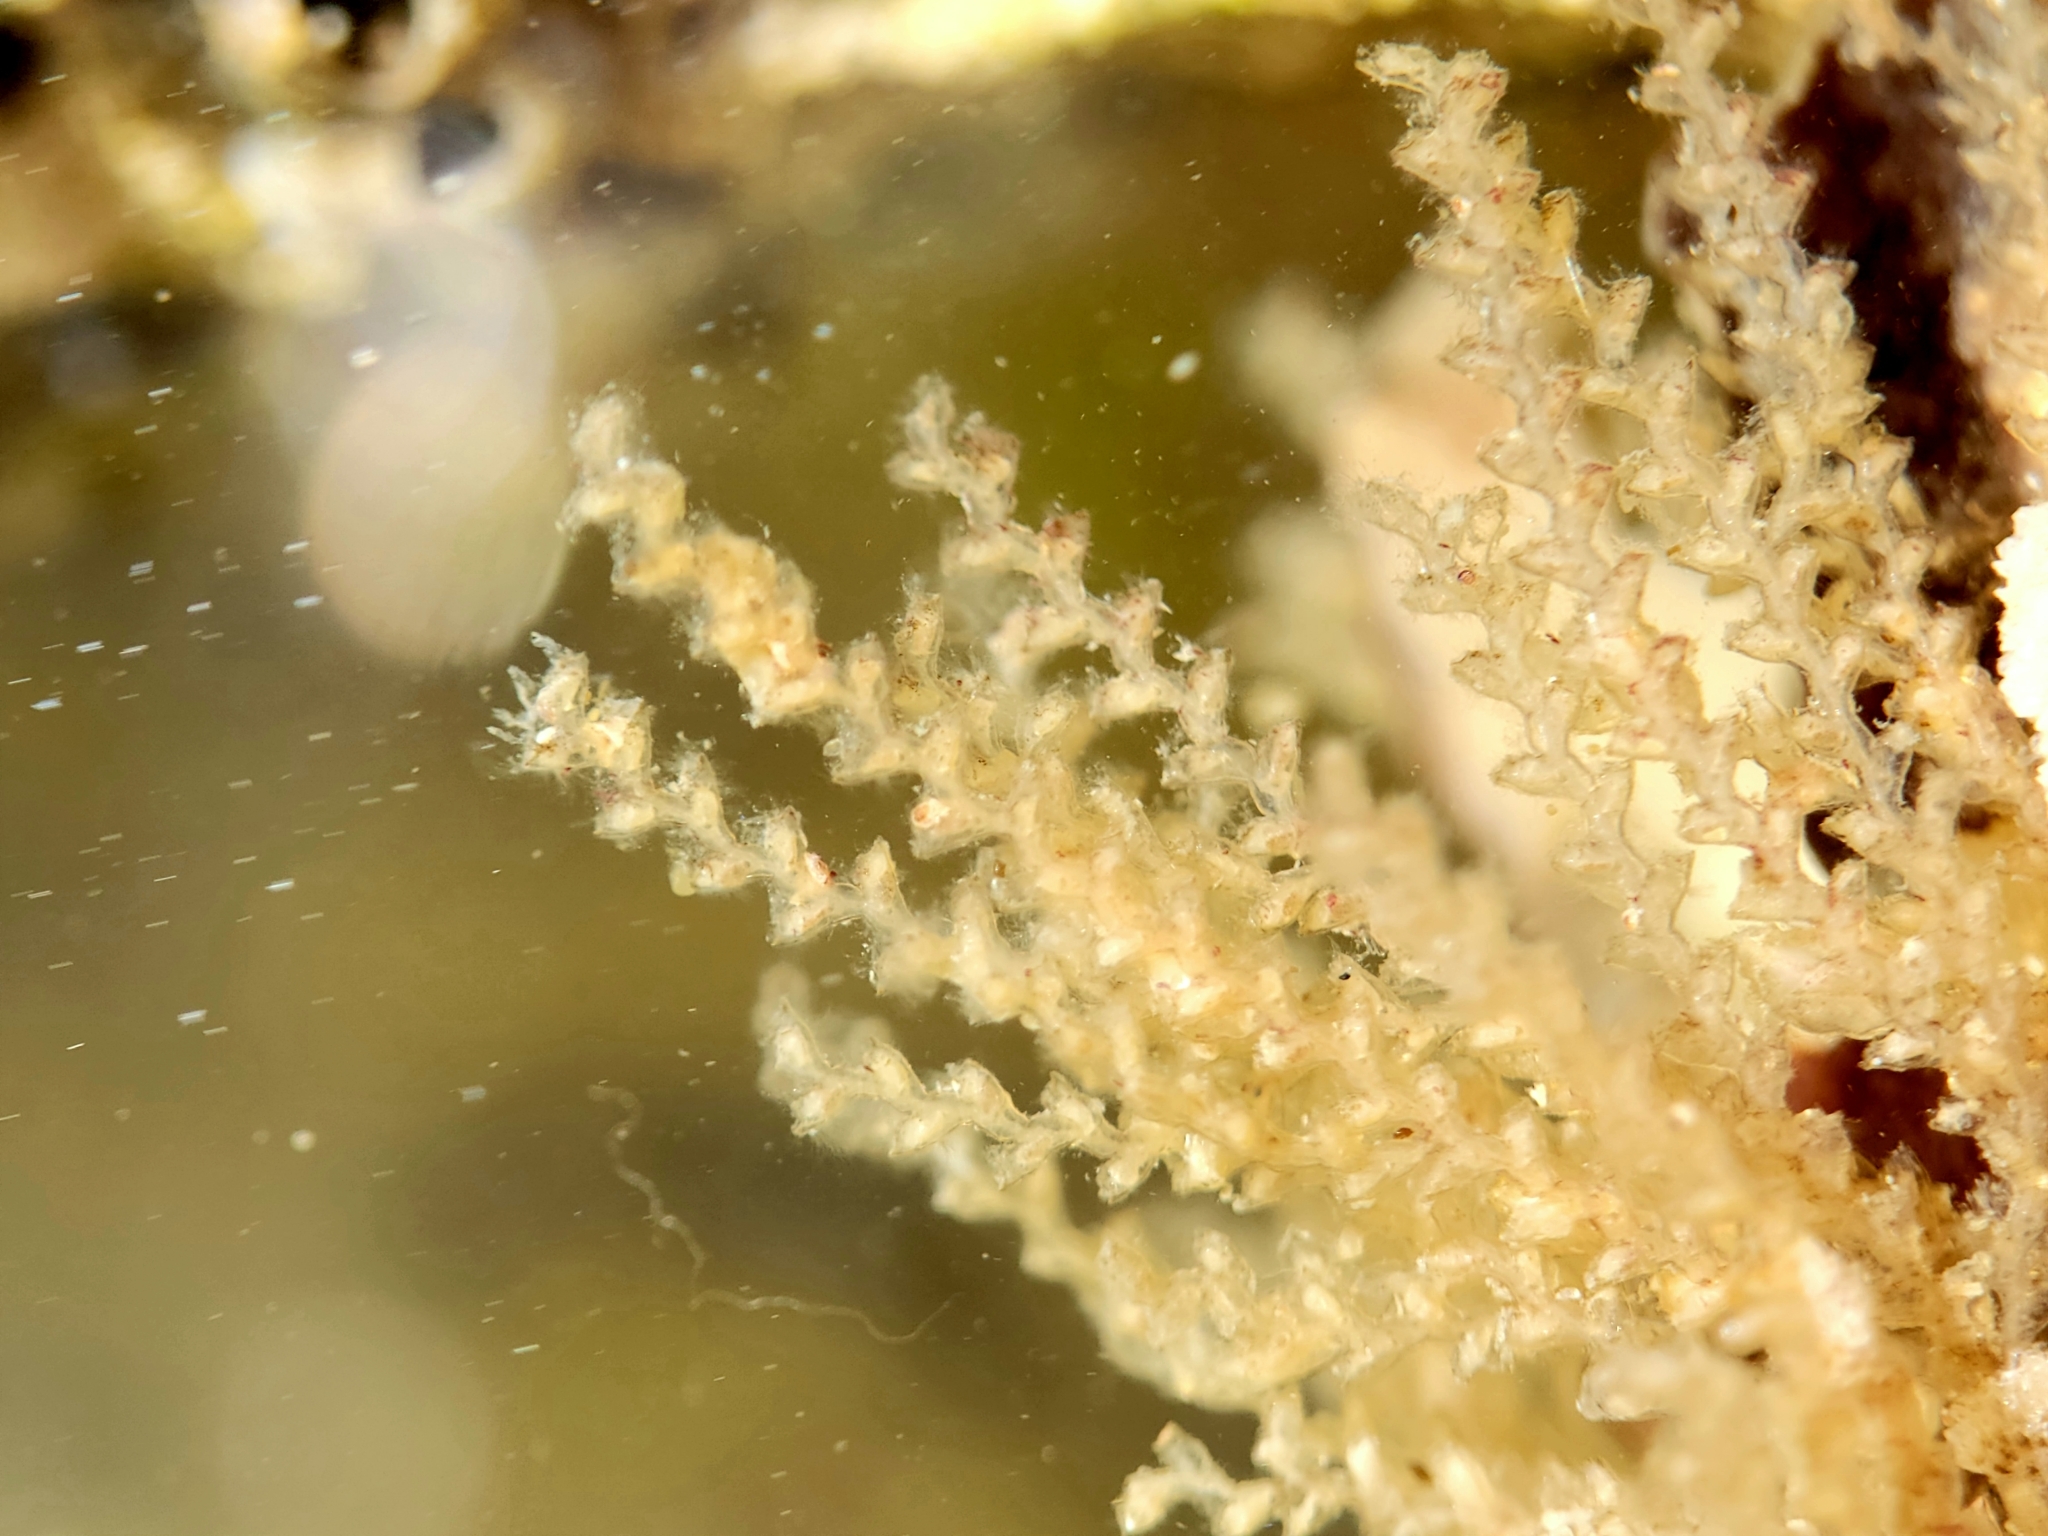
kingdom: Animalia
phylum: Cnidaria
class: Hydrozoa
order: Leptothecata
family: Sertularellidae
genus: Xingyurella
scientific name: Xingyurella turgida
